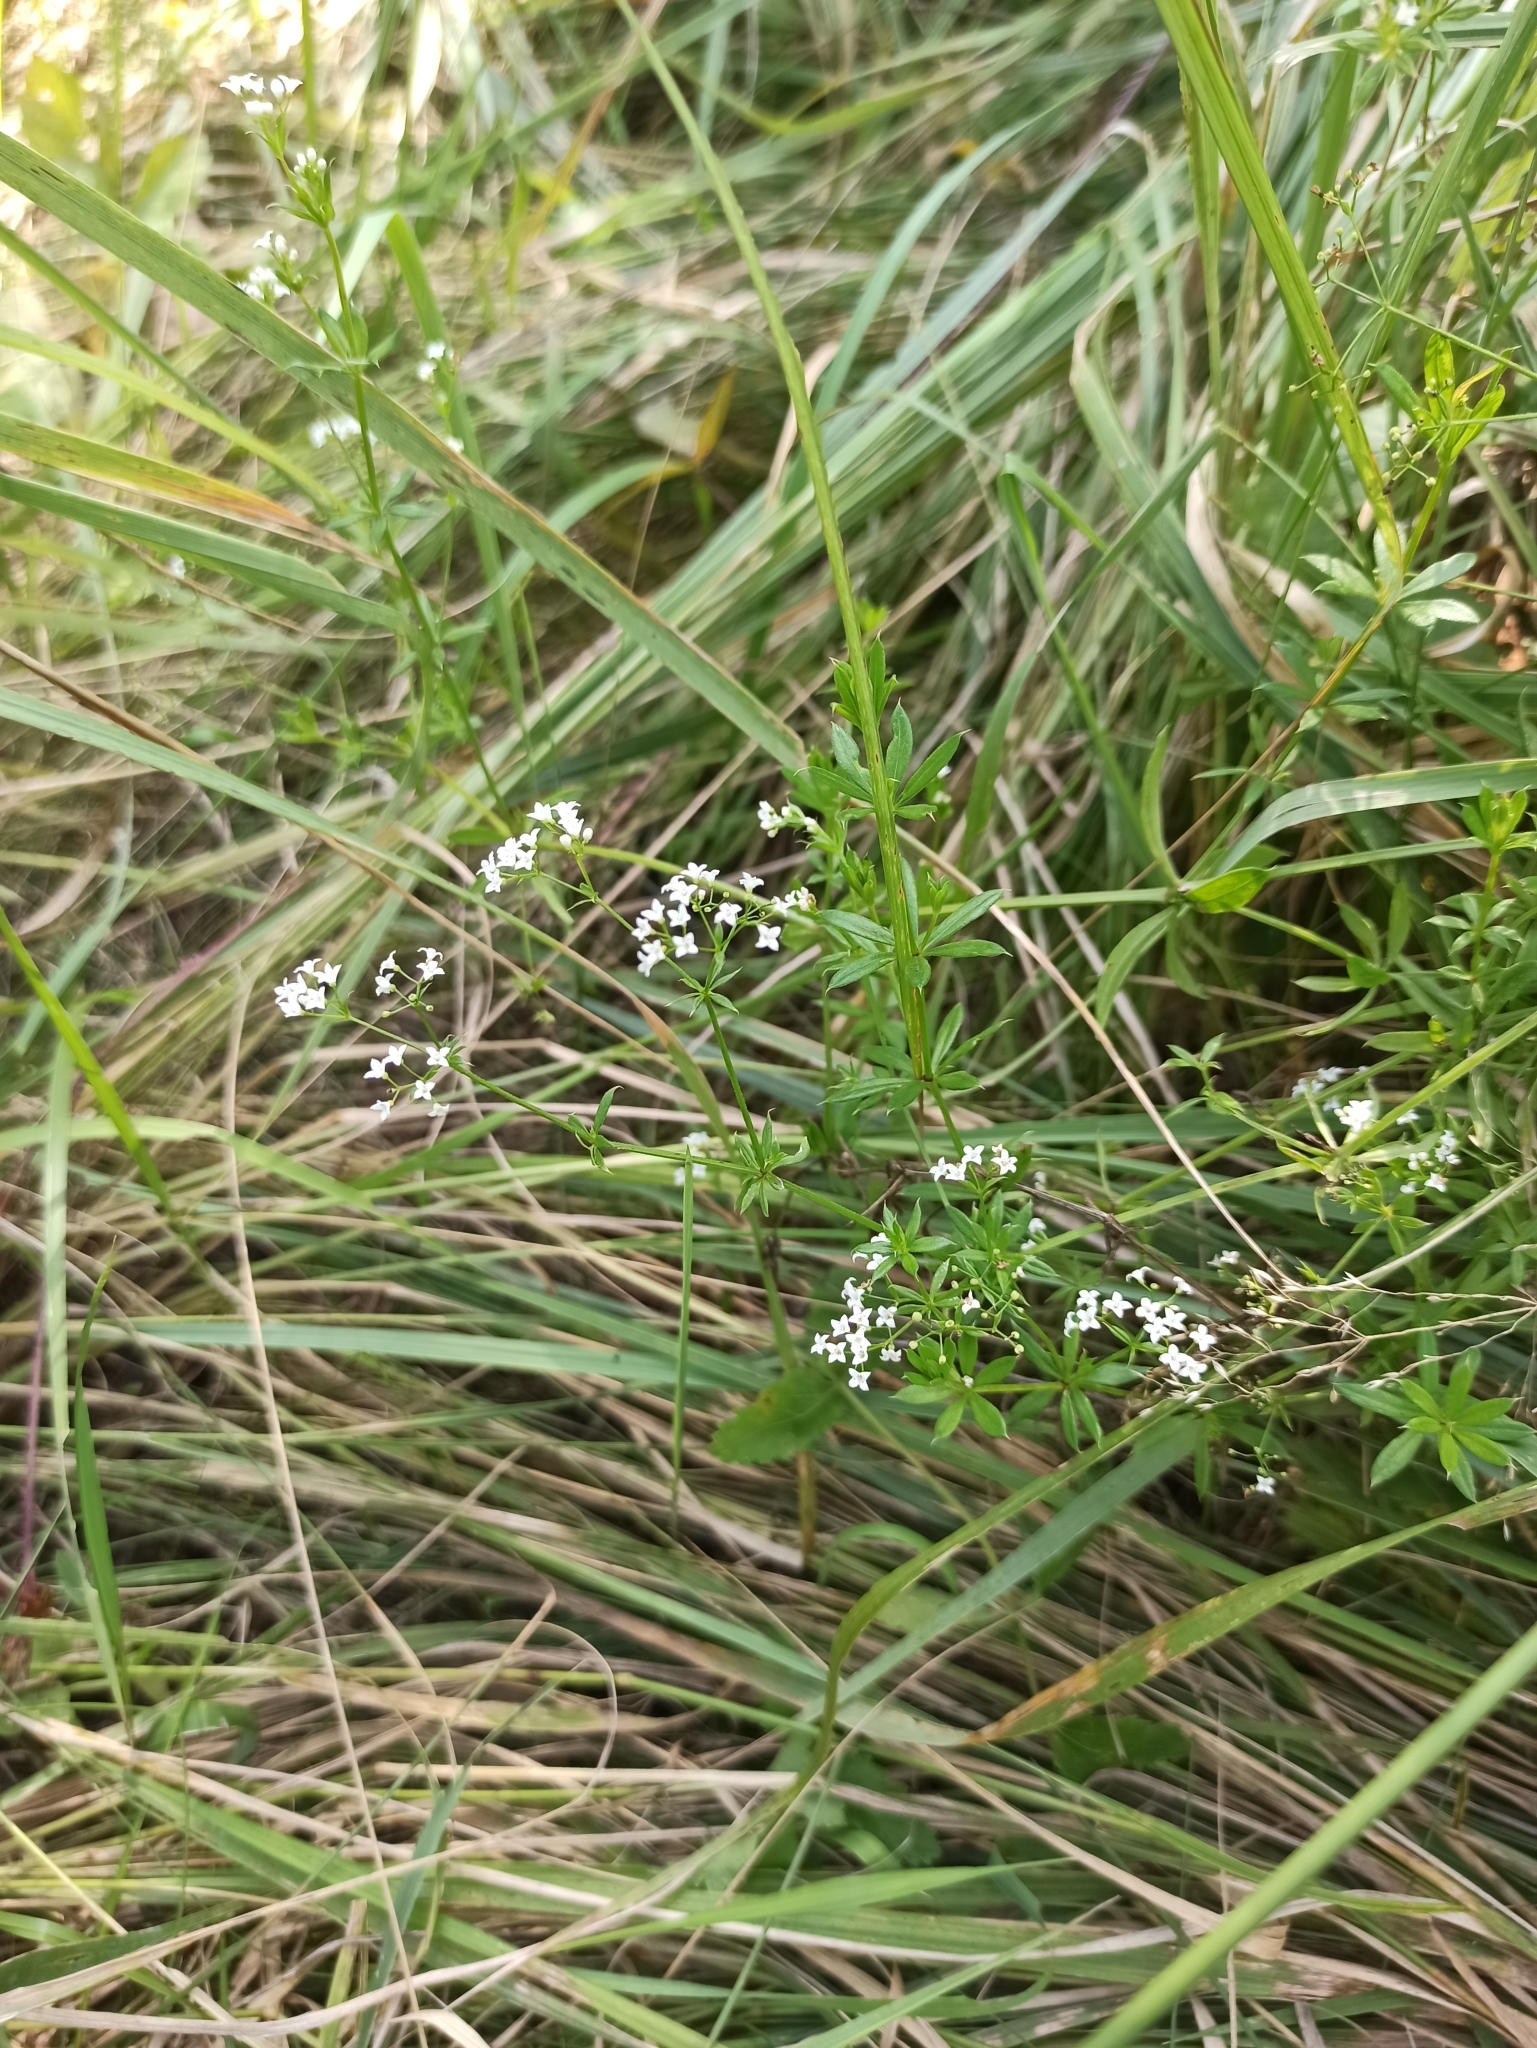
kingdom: Plantae
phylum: Tracheophyta
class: Magnoliopsida
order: Gentianales
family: Rubiaceae
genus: Galium
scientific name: Galium rivale
